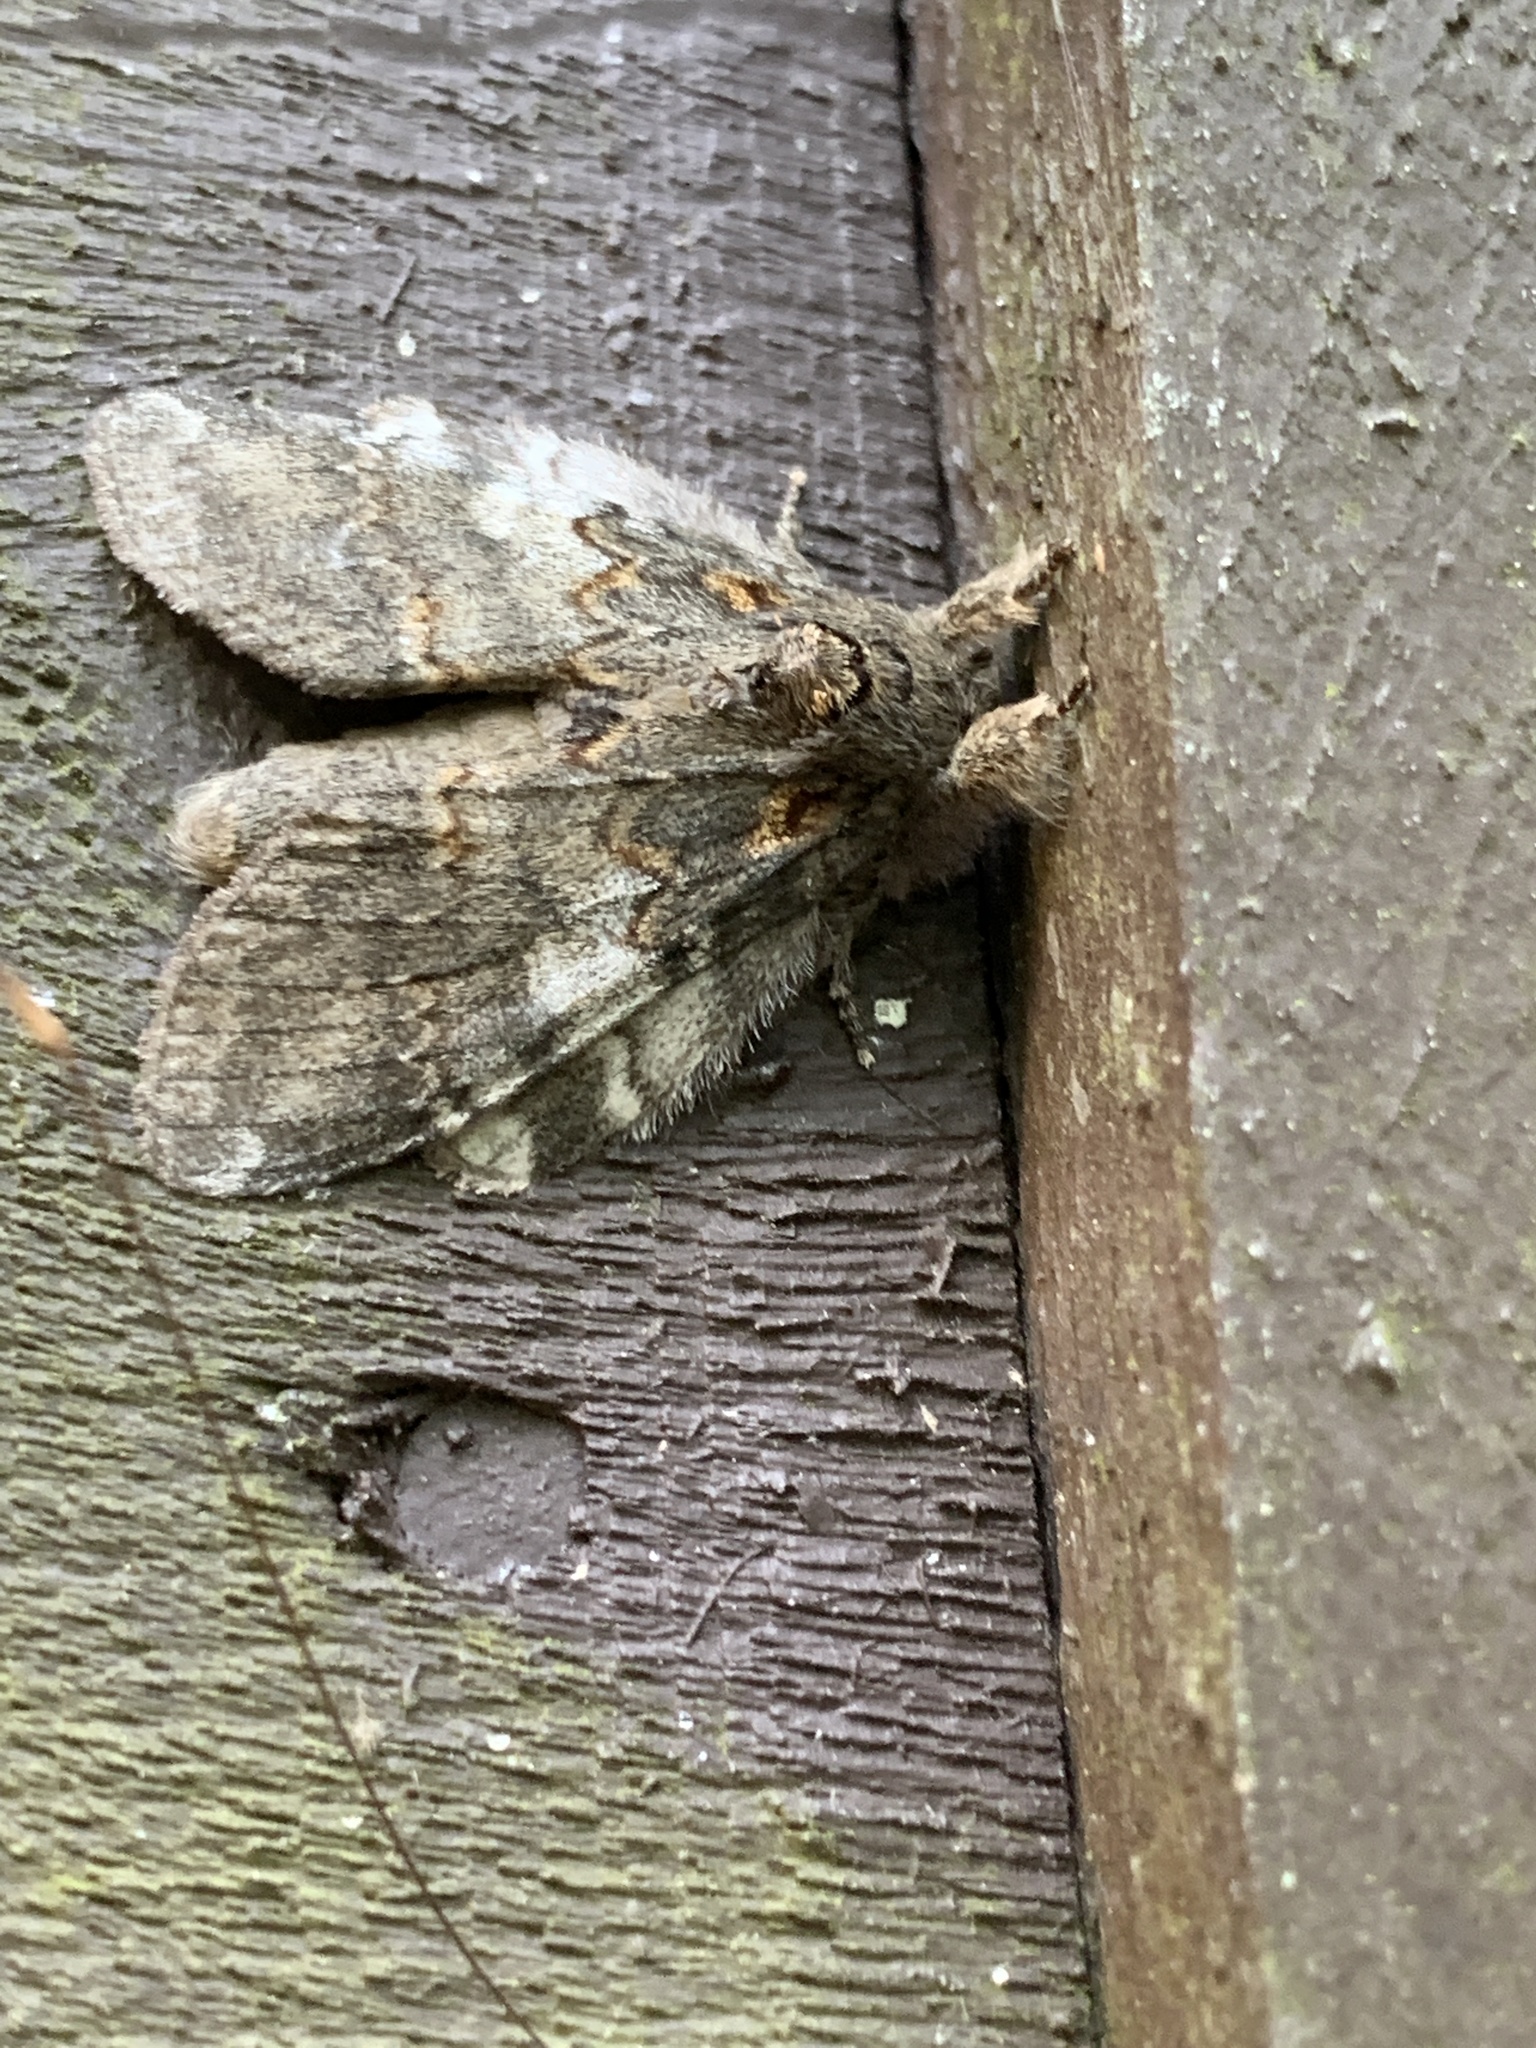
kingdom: Animalia
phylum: Arthropoda
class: Insecta
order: Lepidoptera
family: Notodontidae
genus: Peridea
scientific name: Peridea angulosa
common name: Angulose prominent
